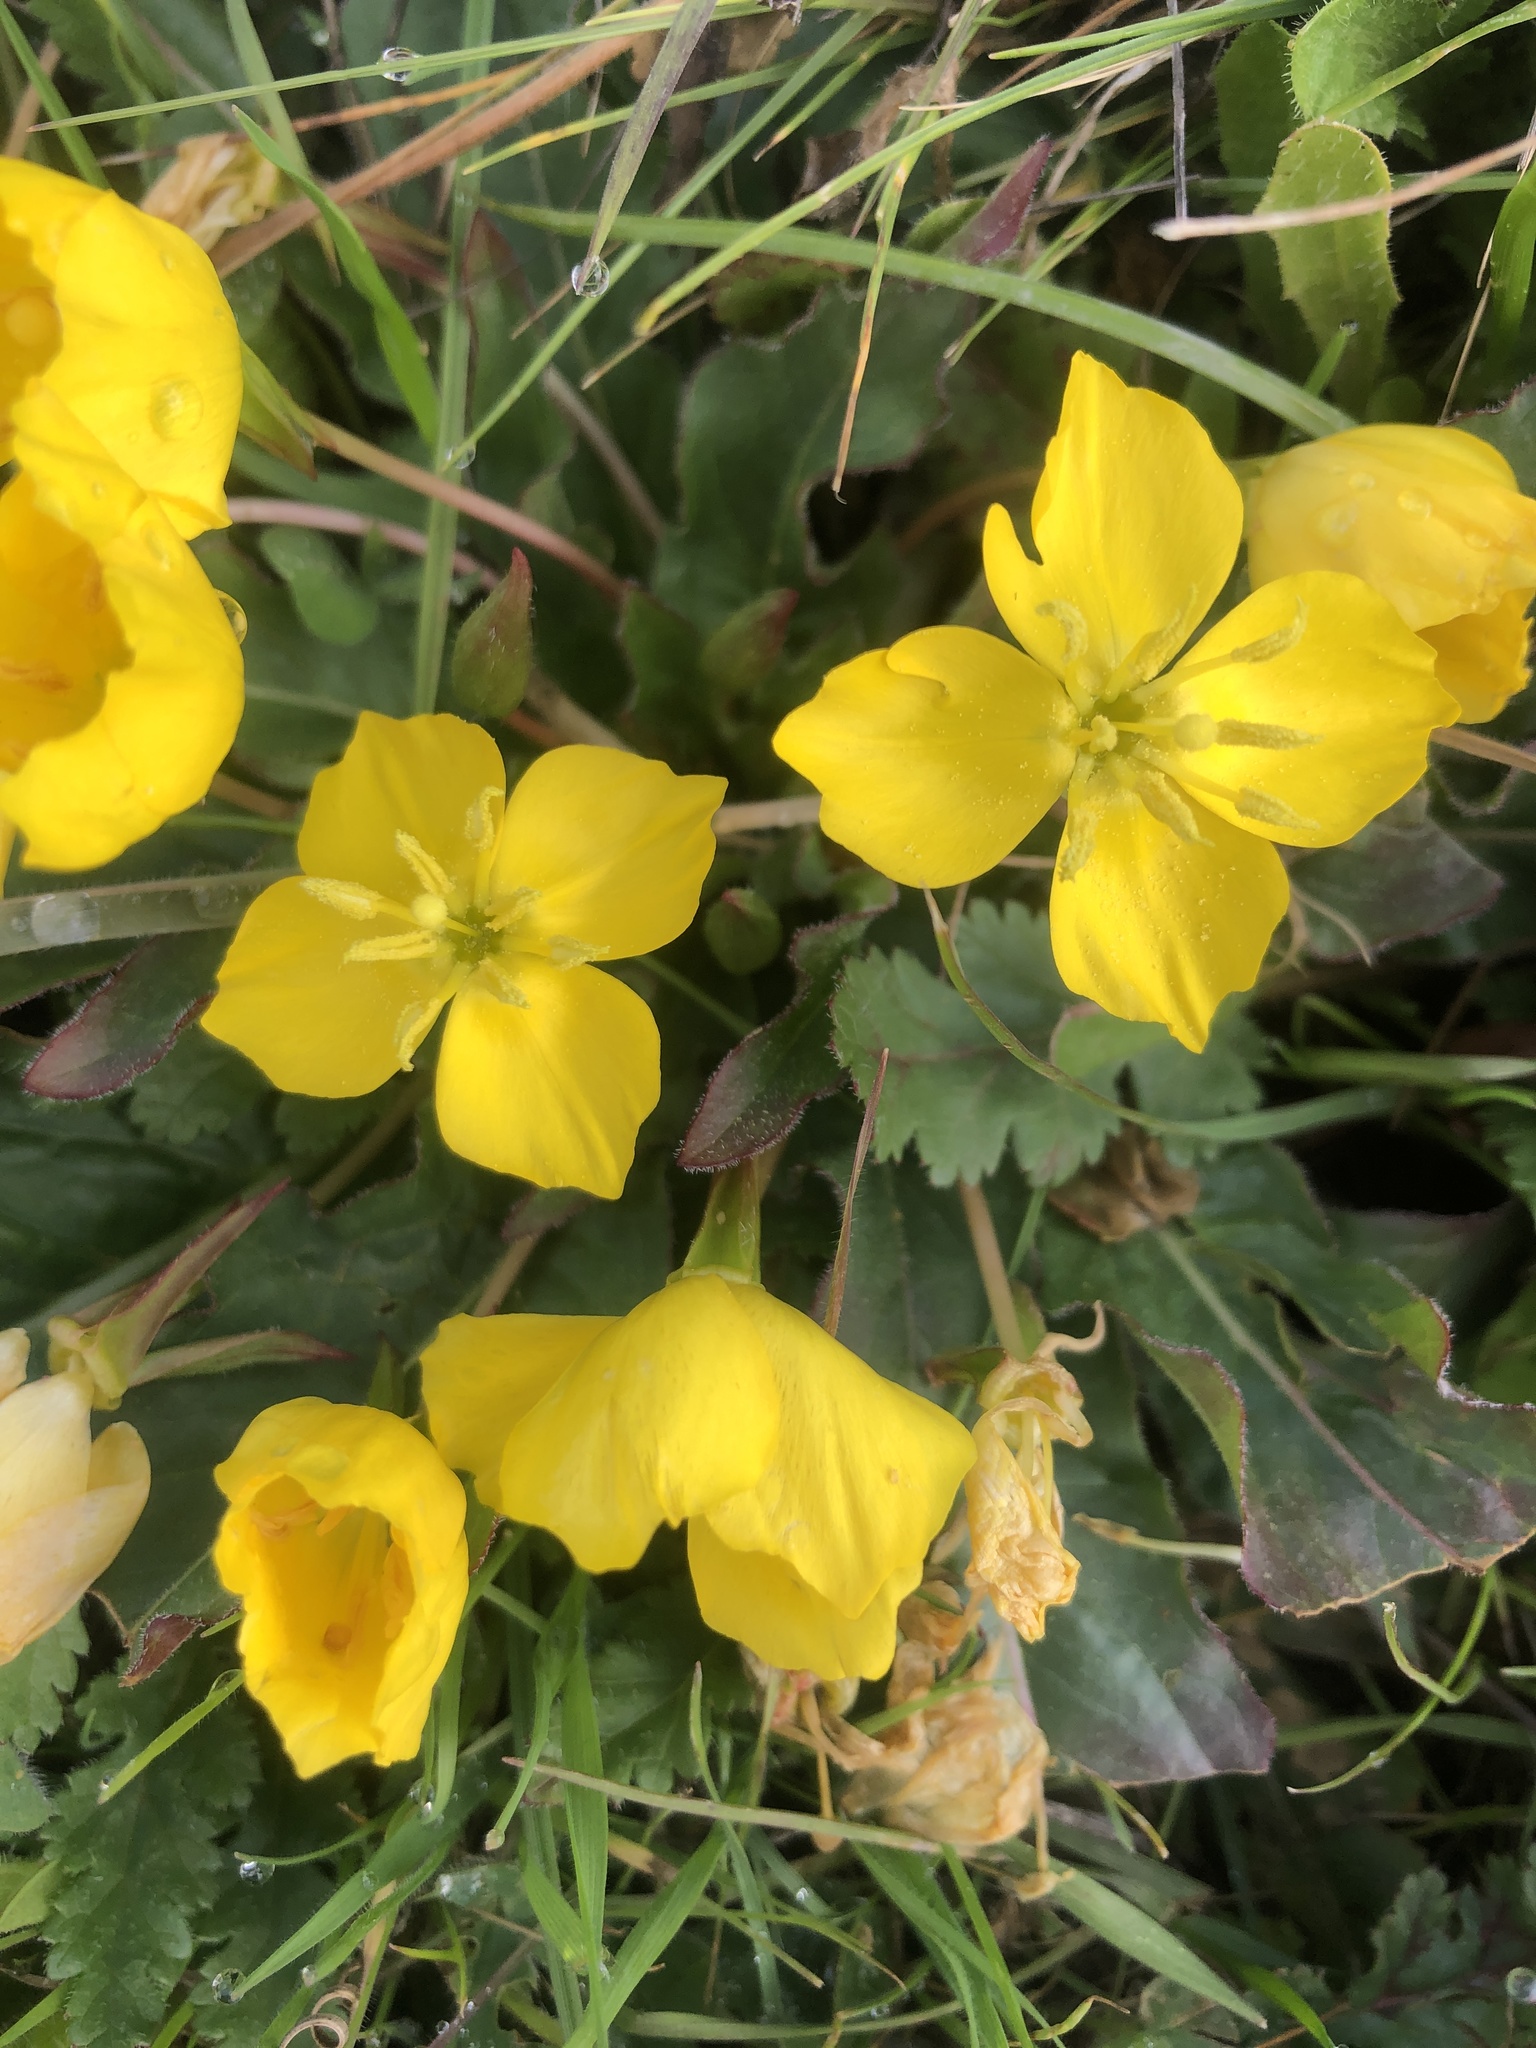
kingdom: Plantae
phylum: Tracheophyta
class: Magnoliopsida
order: Myrtales
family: Onagraceae
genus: Taraxia
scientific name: Taraxia ovata
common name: Goldeneggs
